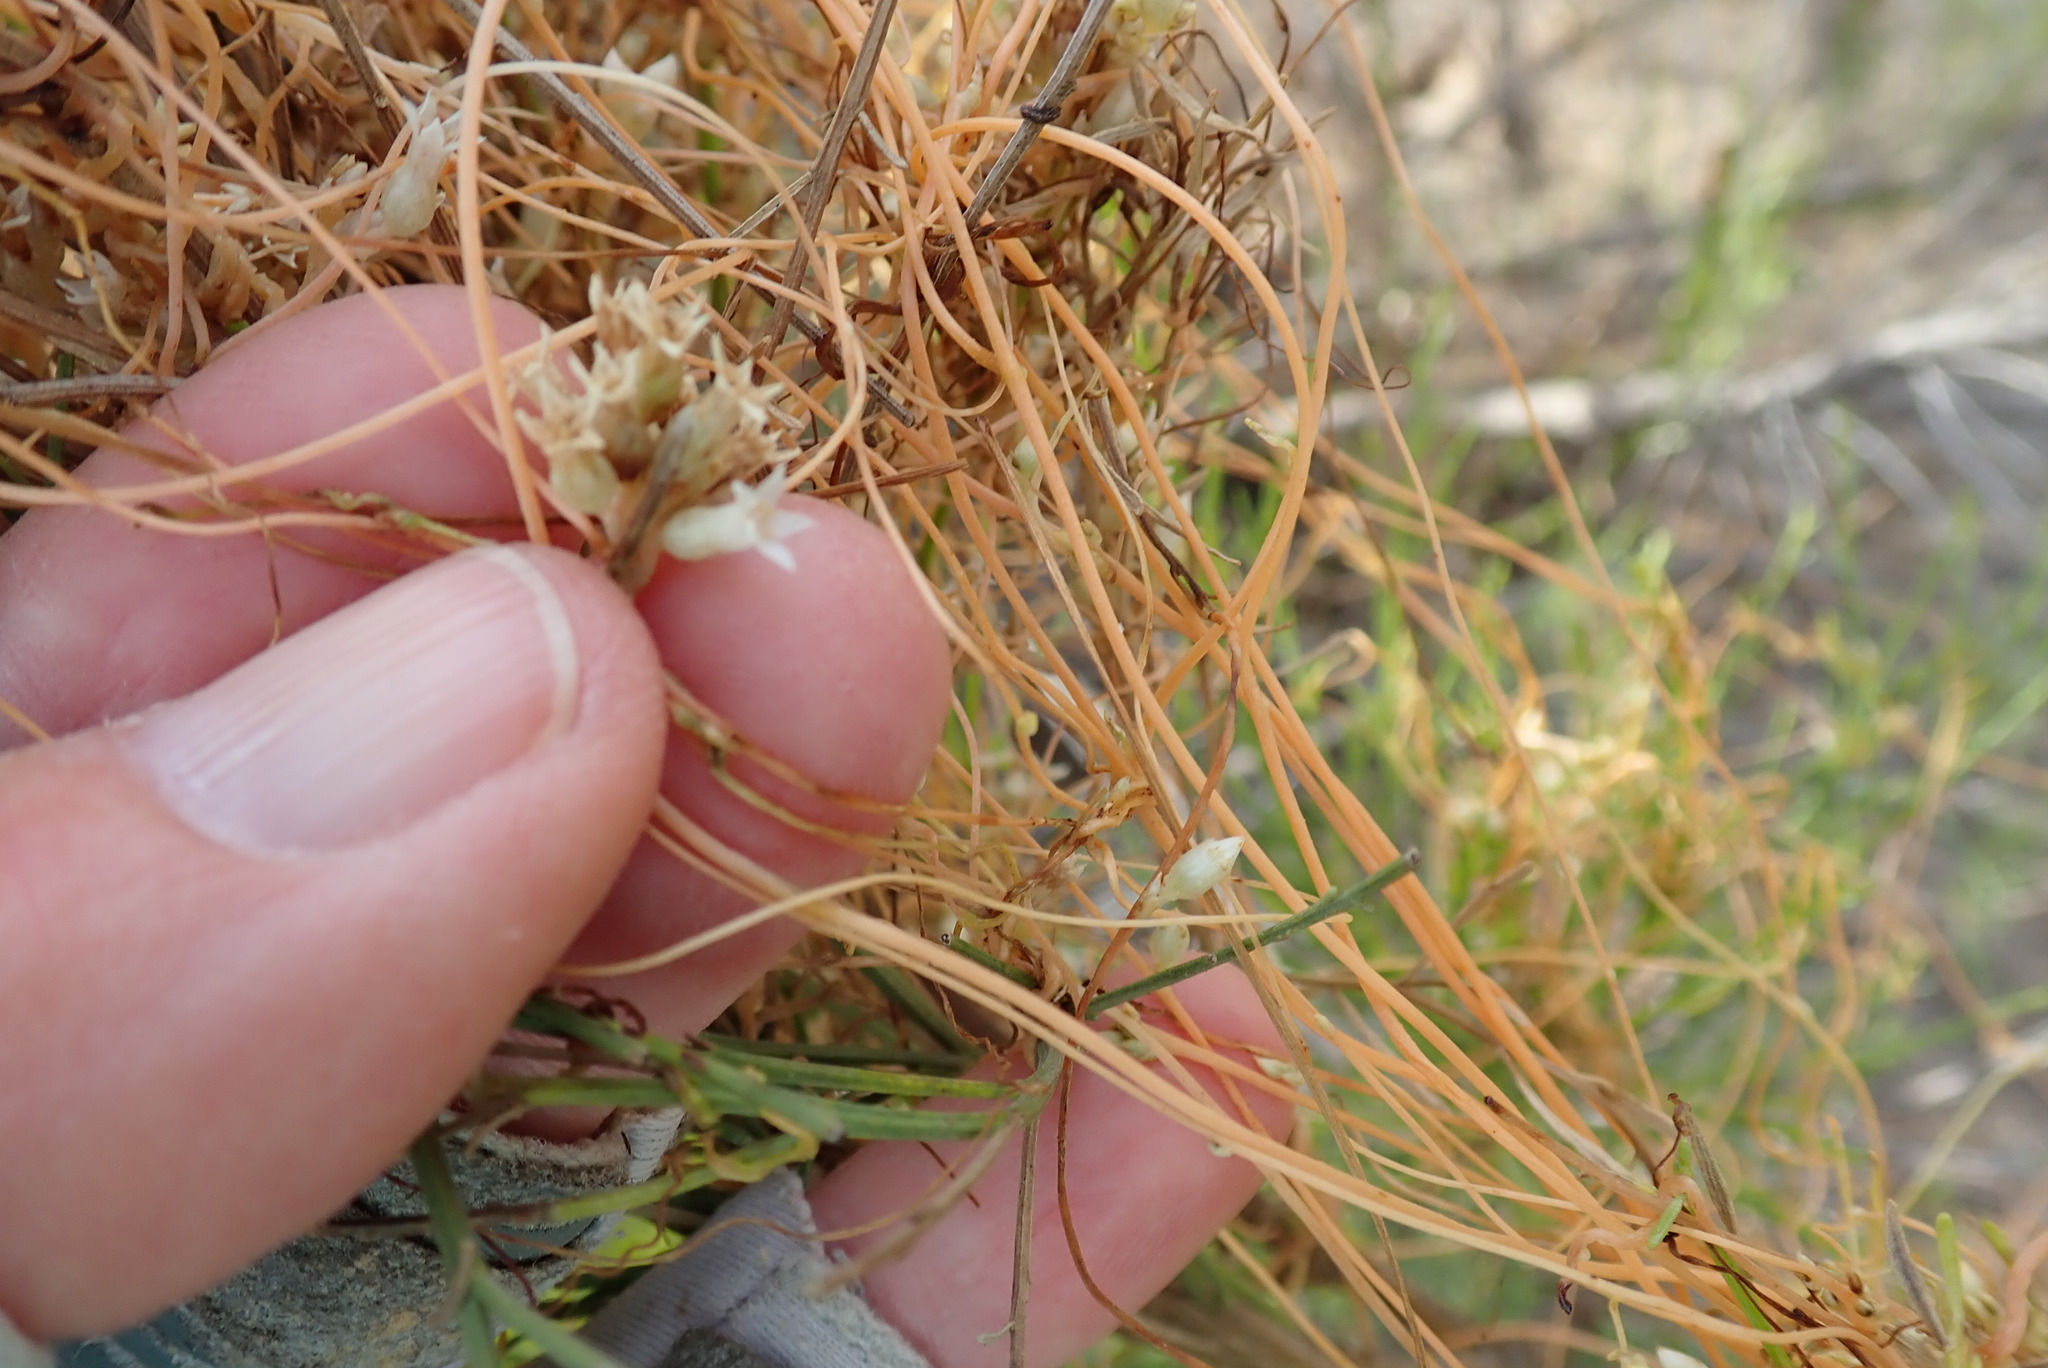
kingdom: Plantae
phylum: Tracheophyta
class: Magnoliopsida
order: Solanales
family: Convolvulaceae
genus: Cuscuta
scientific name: Cuscuta subinclusa
